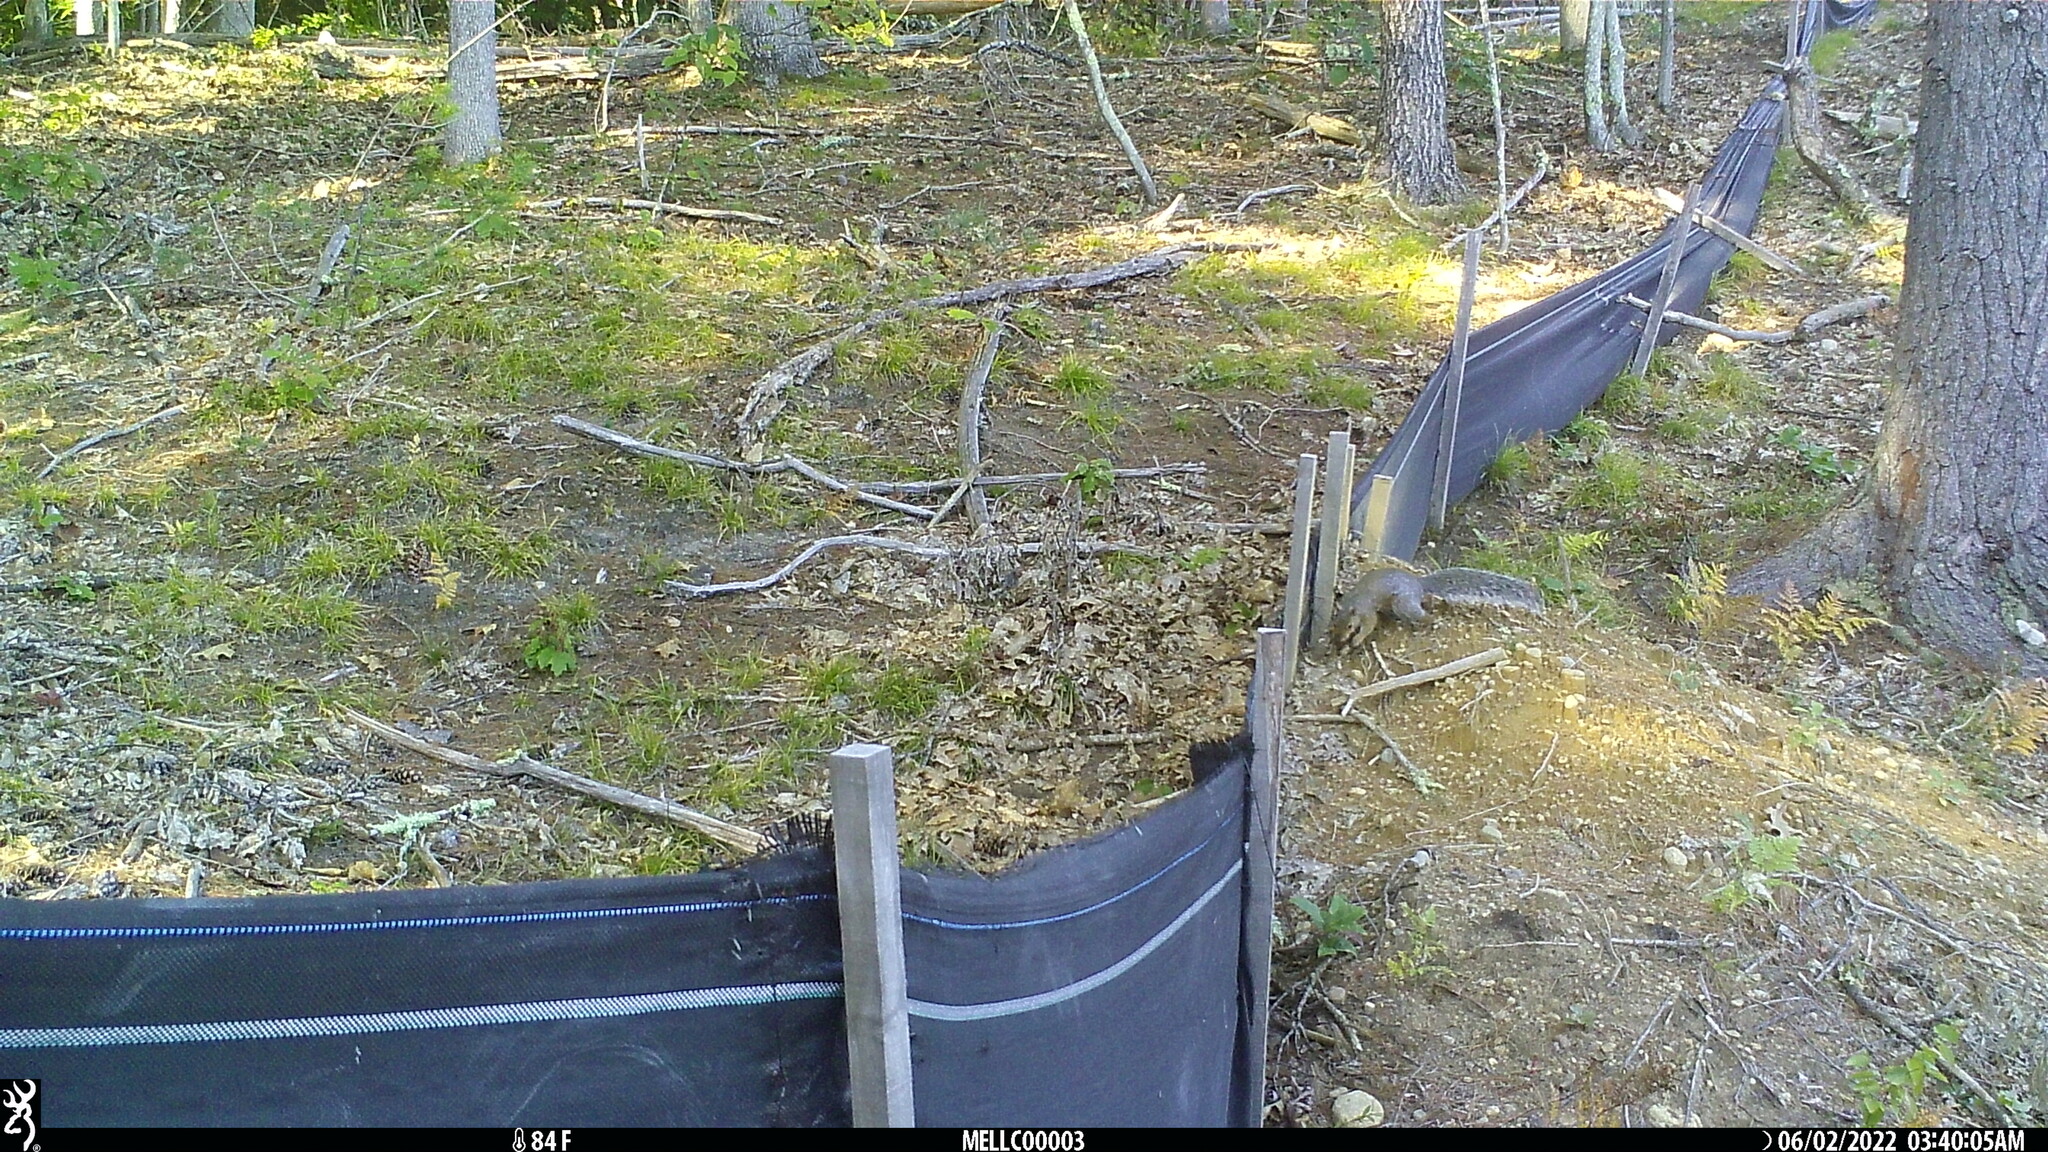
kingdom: Animalia
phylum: Chordata
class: Mammalia
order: Rodentia
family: Sciuridae
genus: Sciurus
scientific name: Sciurus carolinensis
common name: Eastern gray squirrel
